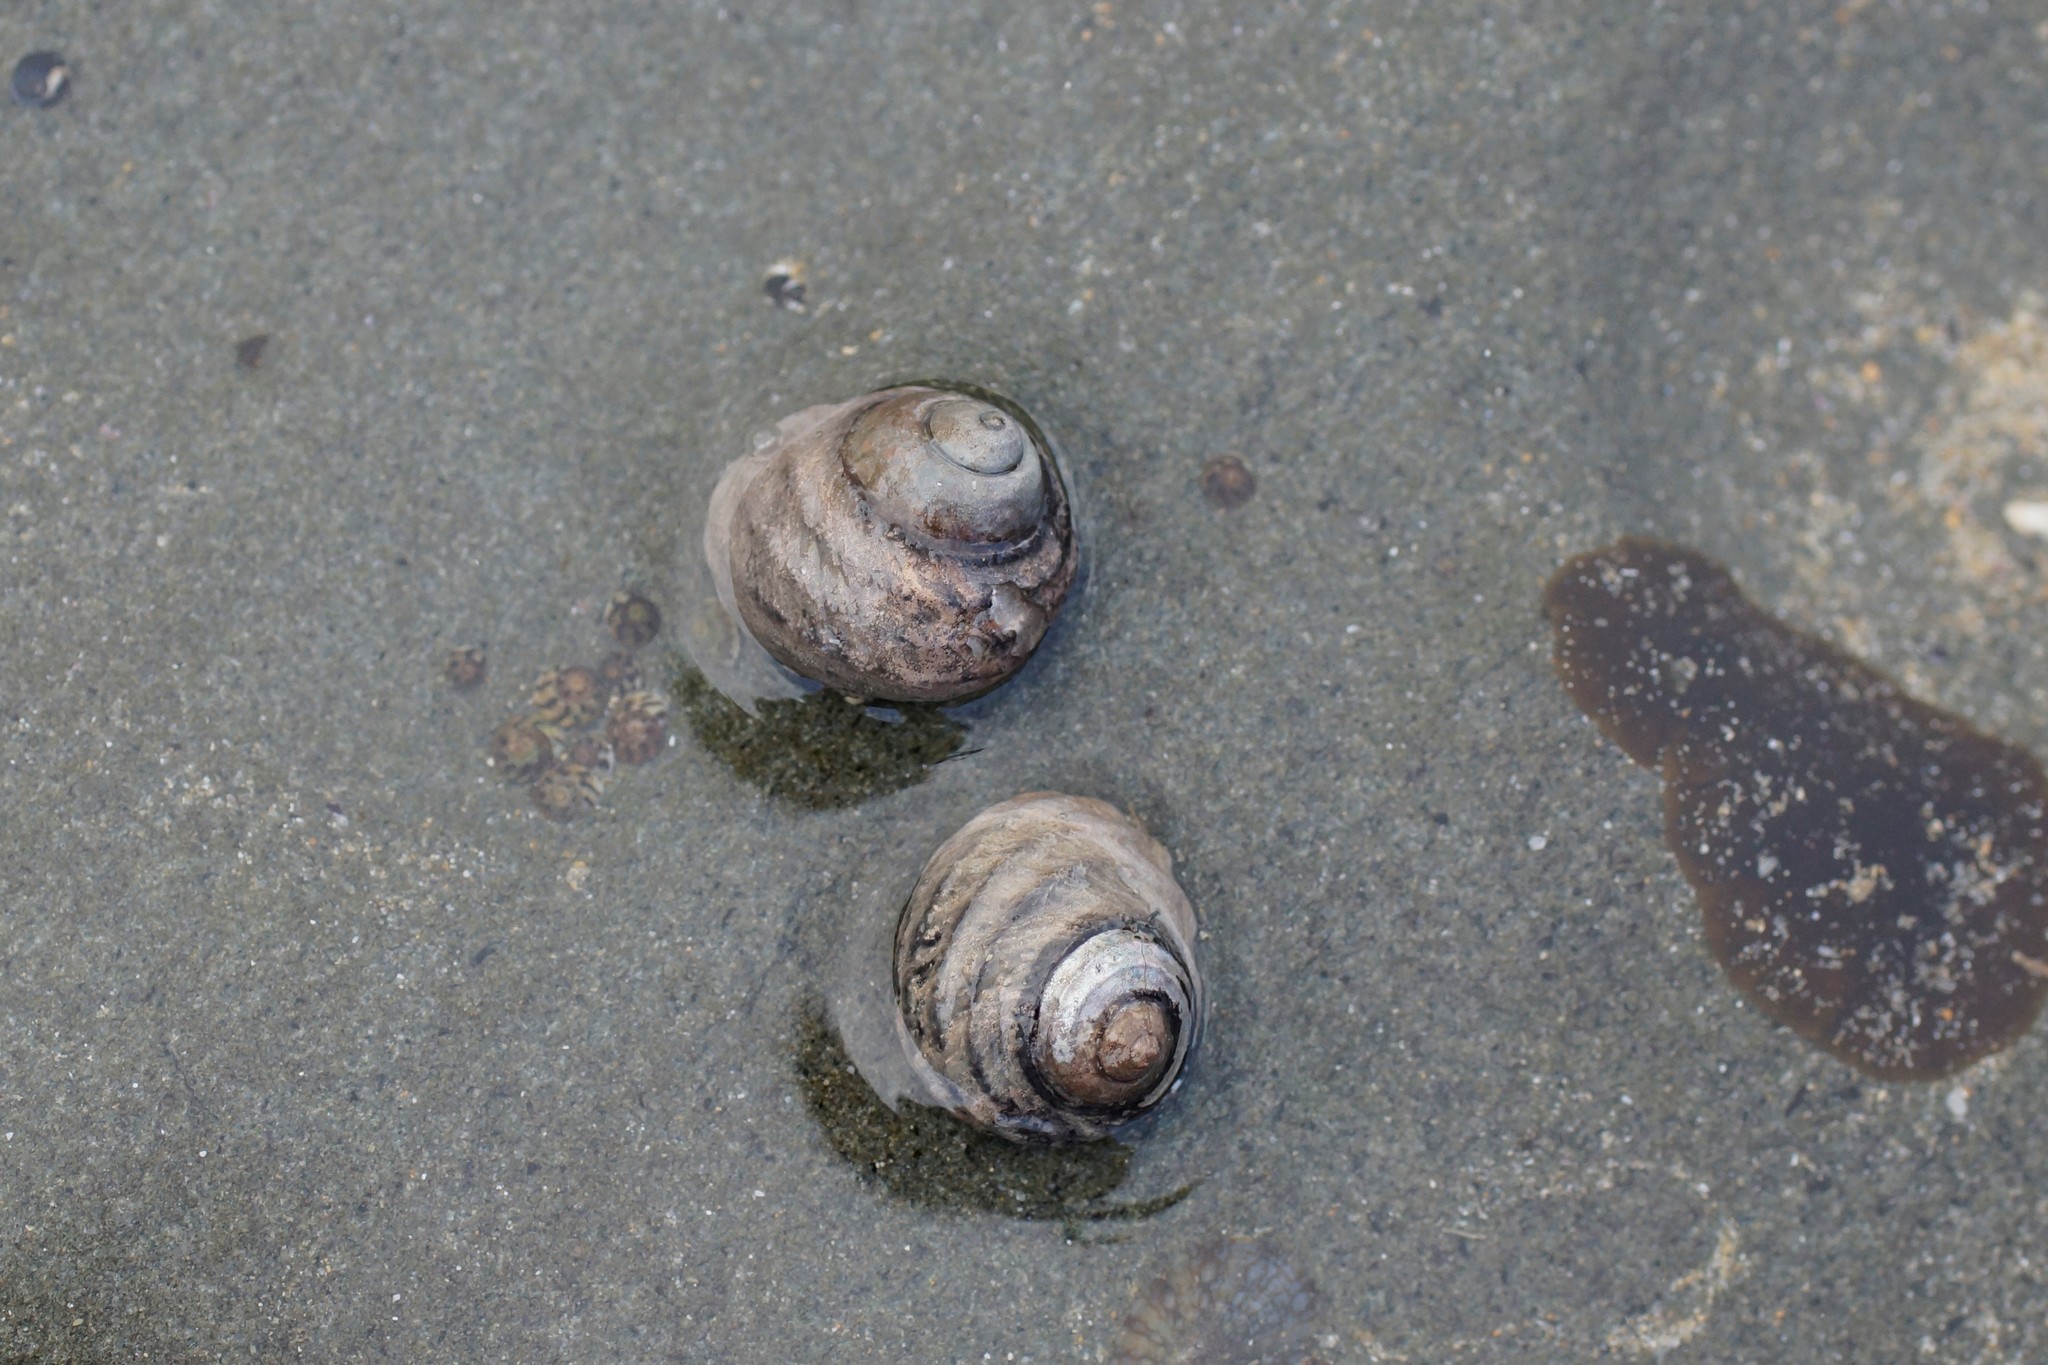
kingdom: Animalia
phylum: Mollusca
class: Gastropoda
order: Trochida
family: Trochidae
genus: Austrocochlea
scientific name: Austrocochlea constricta
